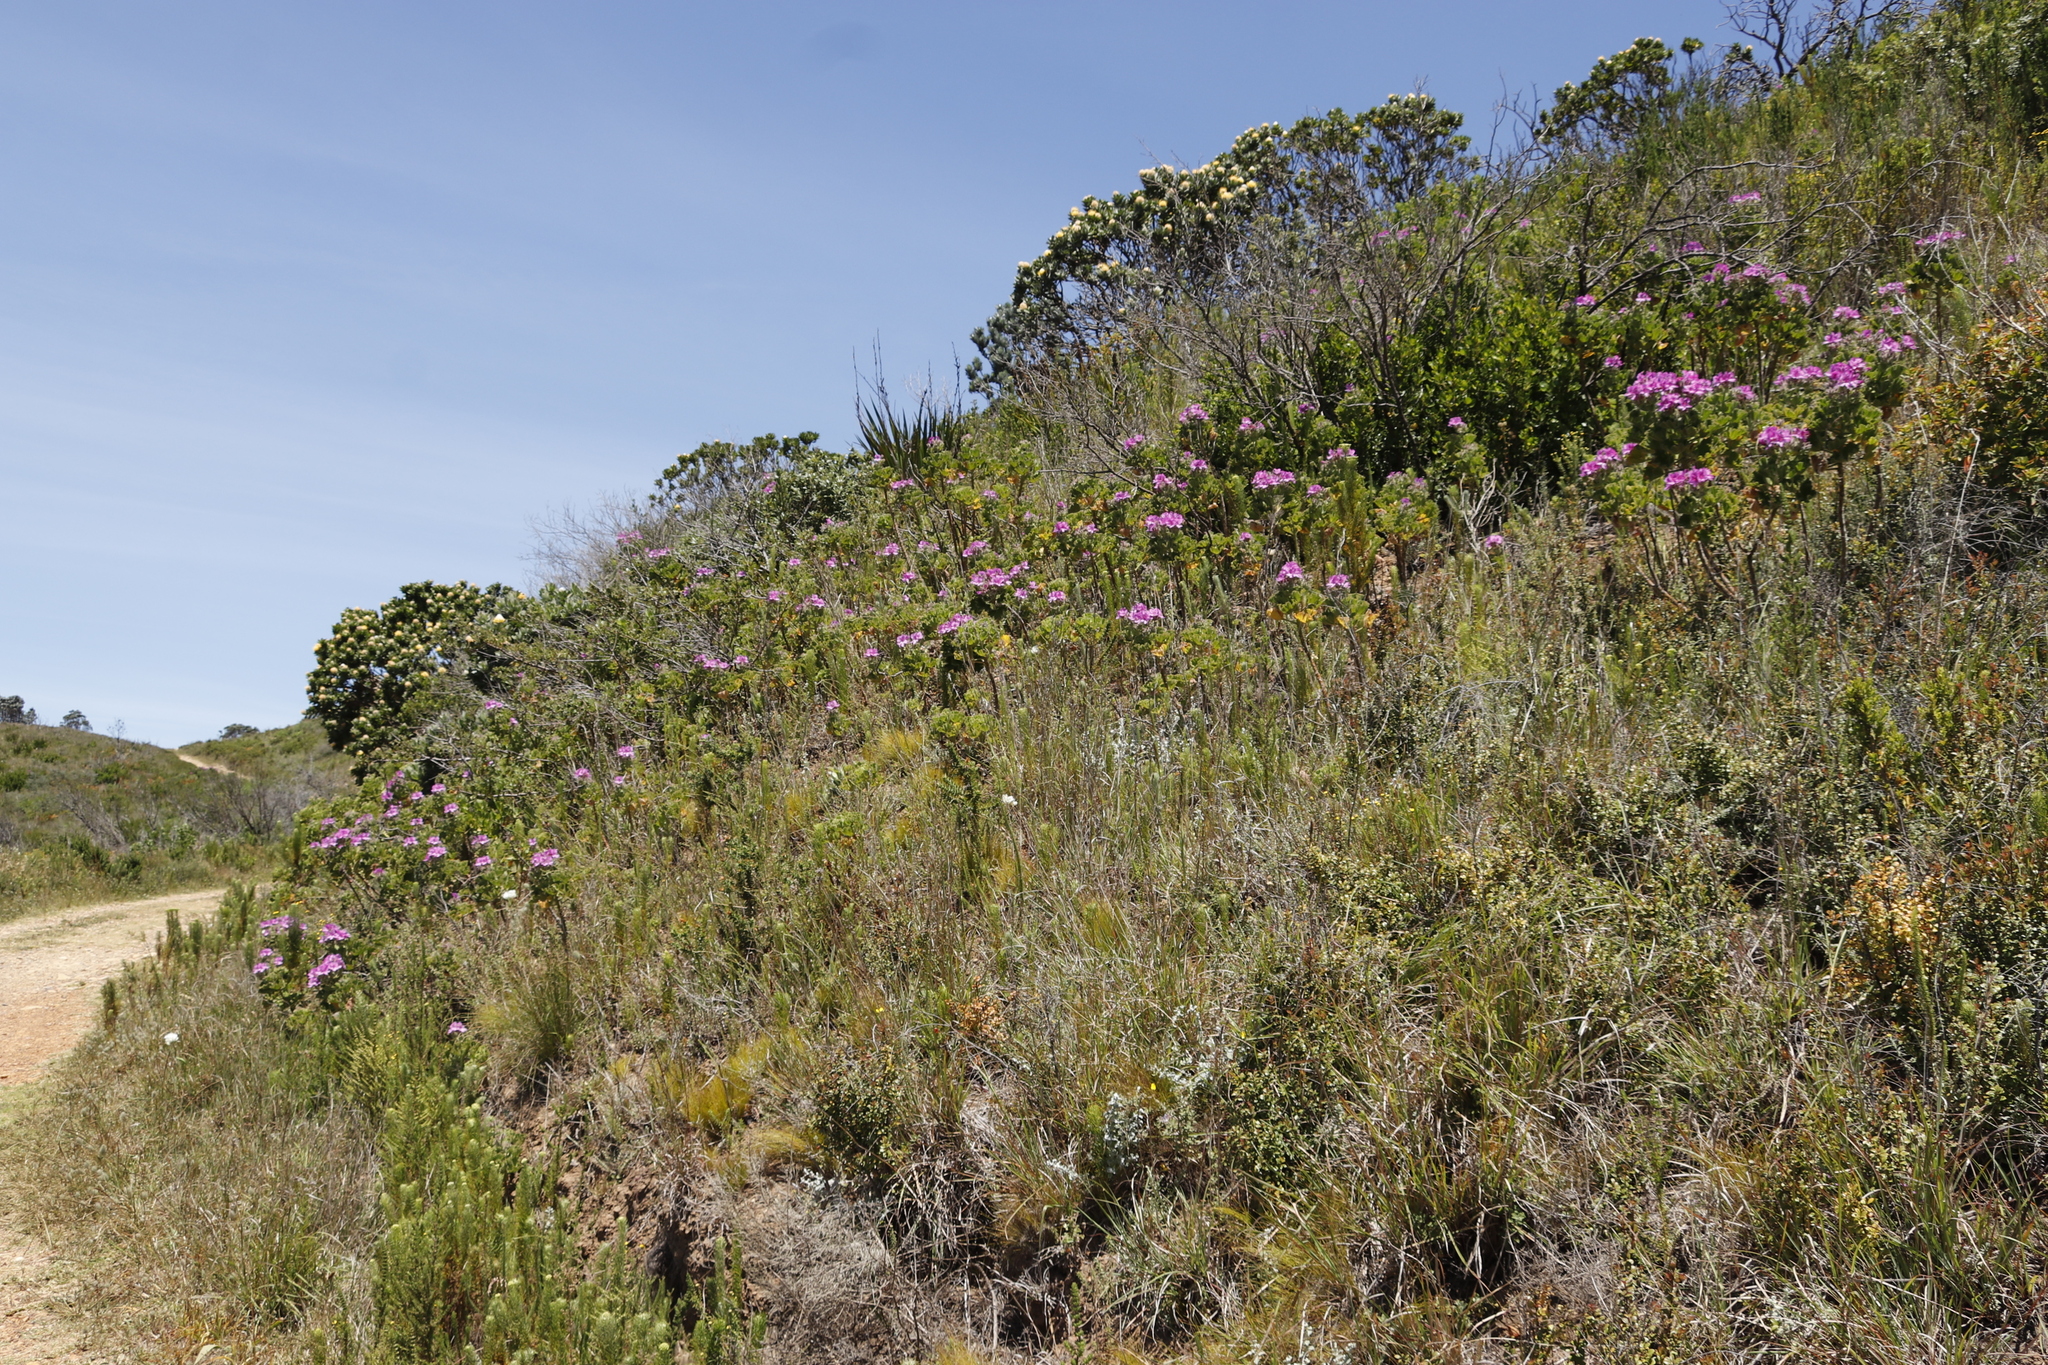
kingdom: Plantae
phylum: Tracheophyta
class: Magnoliopsida
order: Geraniales
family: Geraniaceae
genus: Pelargonium
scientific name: Pelargonium cucullatum
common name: Tree pelargonium
